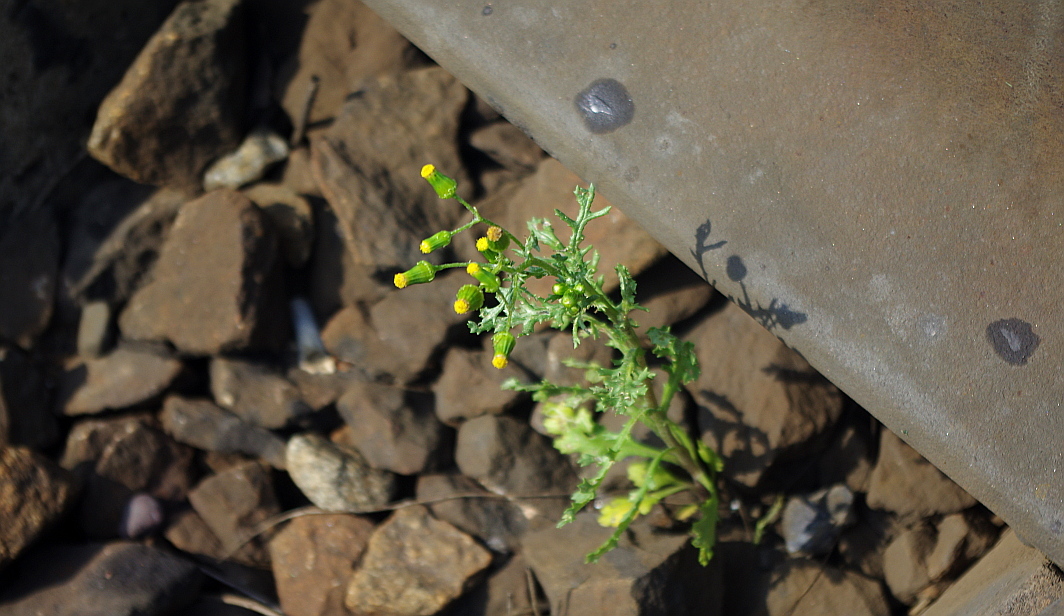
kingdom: Plantae
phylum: Tracheophyta
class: Magnoliopsida
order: Asterales
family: Asteraceae
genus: Senecio
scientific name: Senecio vulgaris
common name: Old-man-in-the-spring
